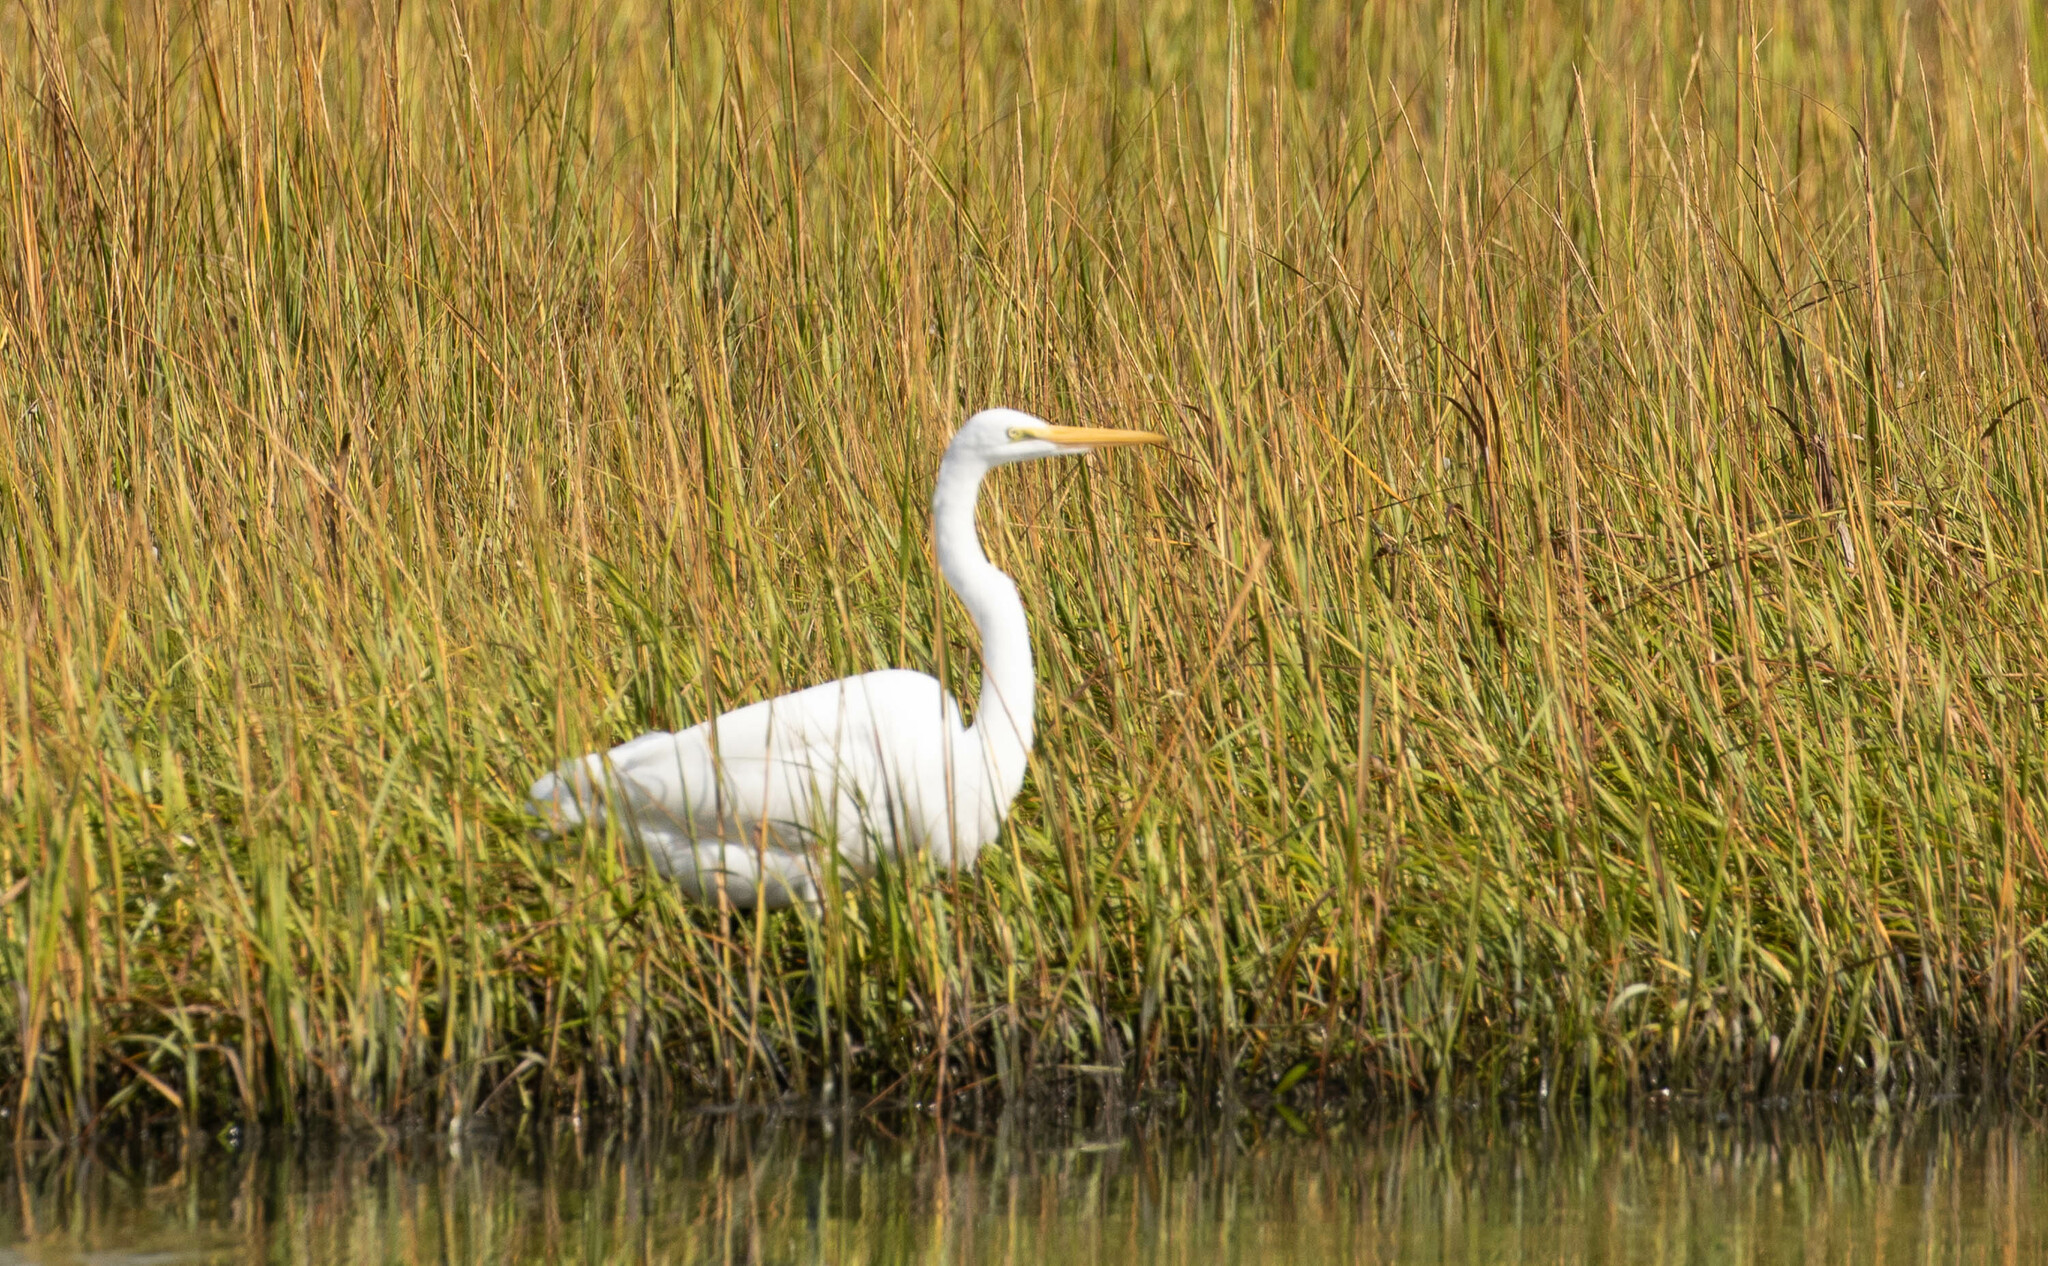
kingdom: Animalia
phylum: Chordata
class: Aves
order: Pelecaniformes
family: Ardeidae
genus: Ardea
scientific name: Ardea alba
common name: Great egret
